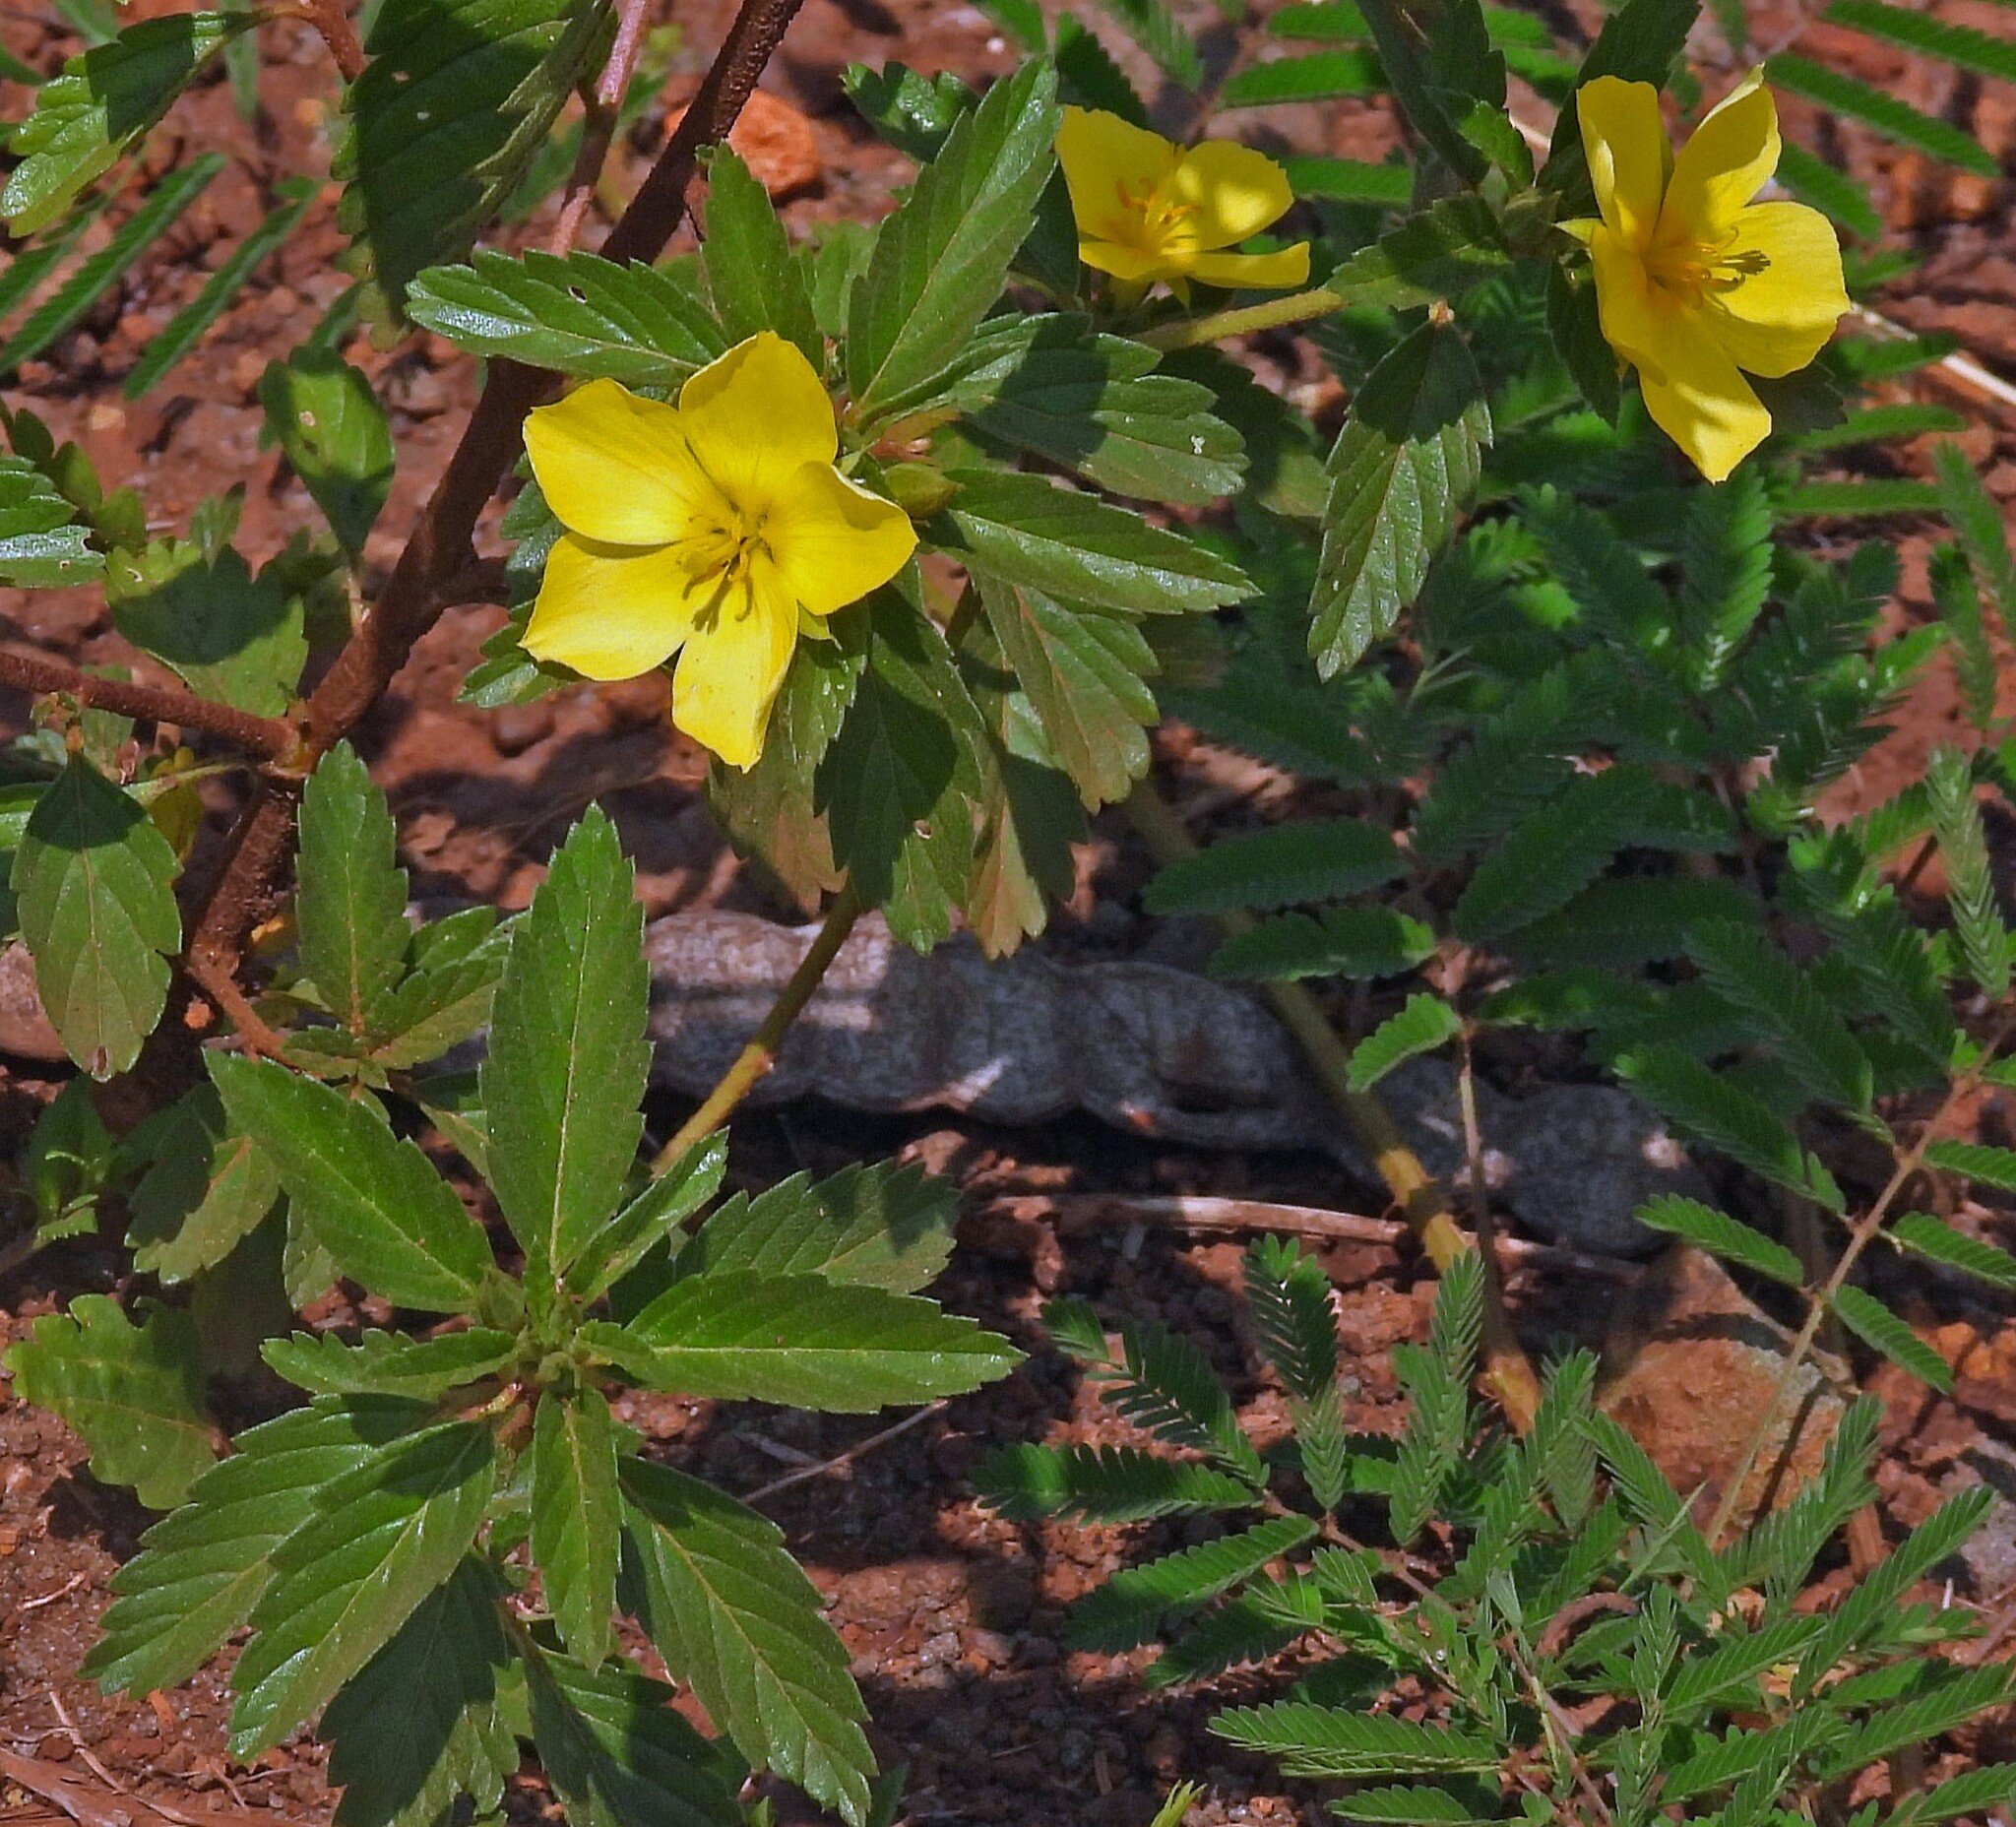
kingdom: Plantae
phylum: Tracheophyta
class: Magnoliopsida
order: Malpighiales
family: Turneraceae
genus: Turnera
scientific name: Turnera orientalis
